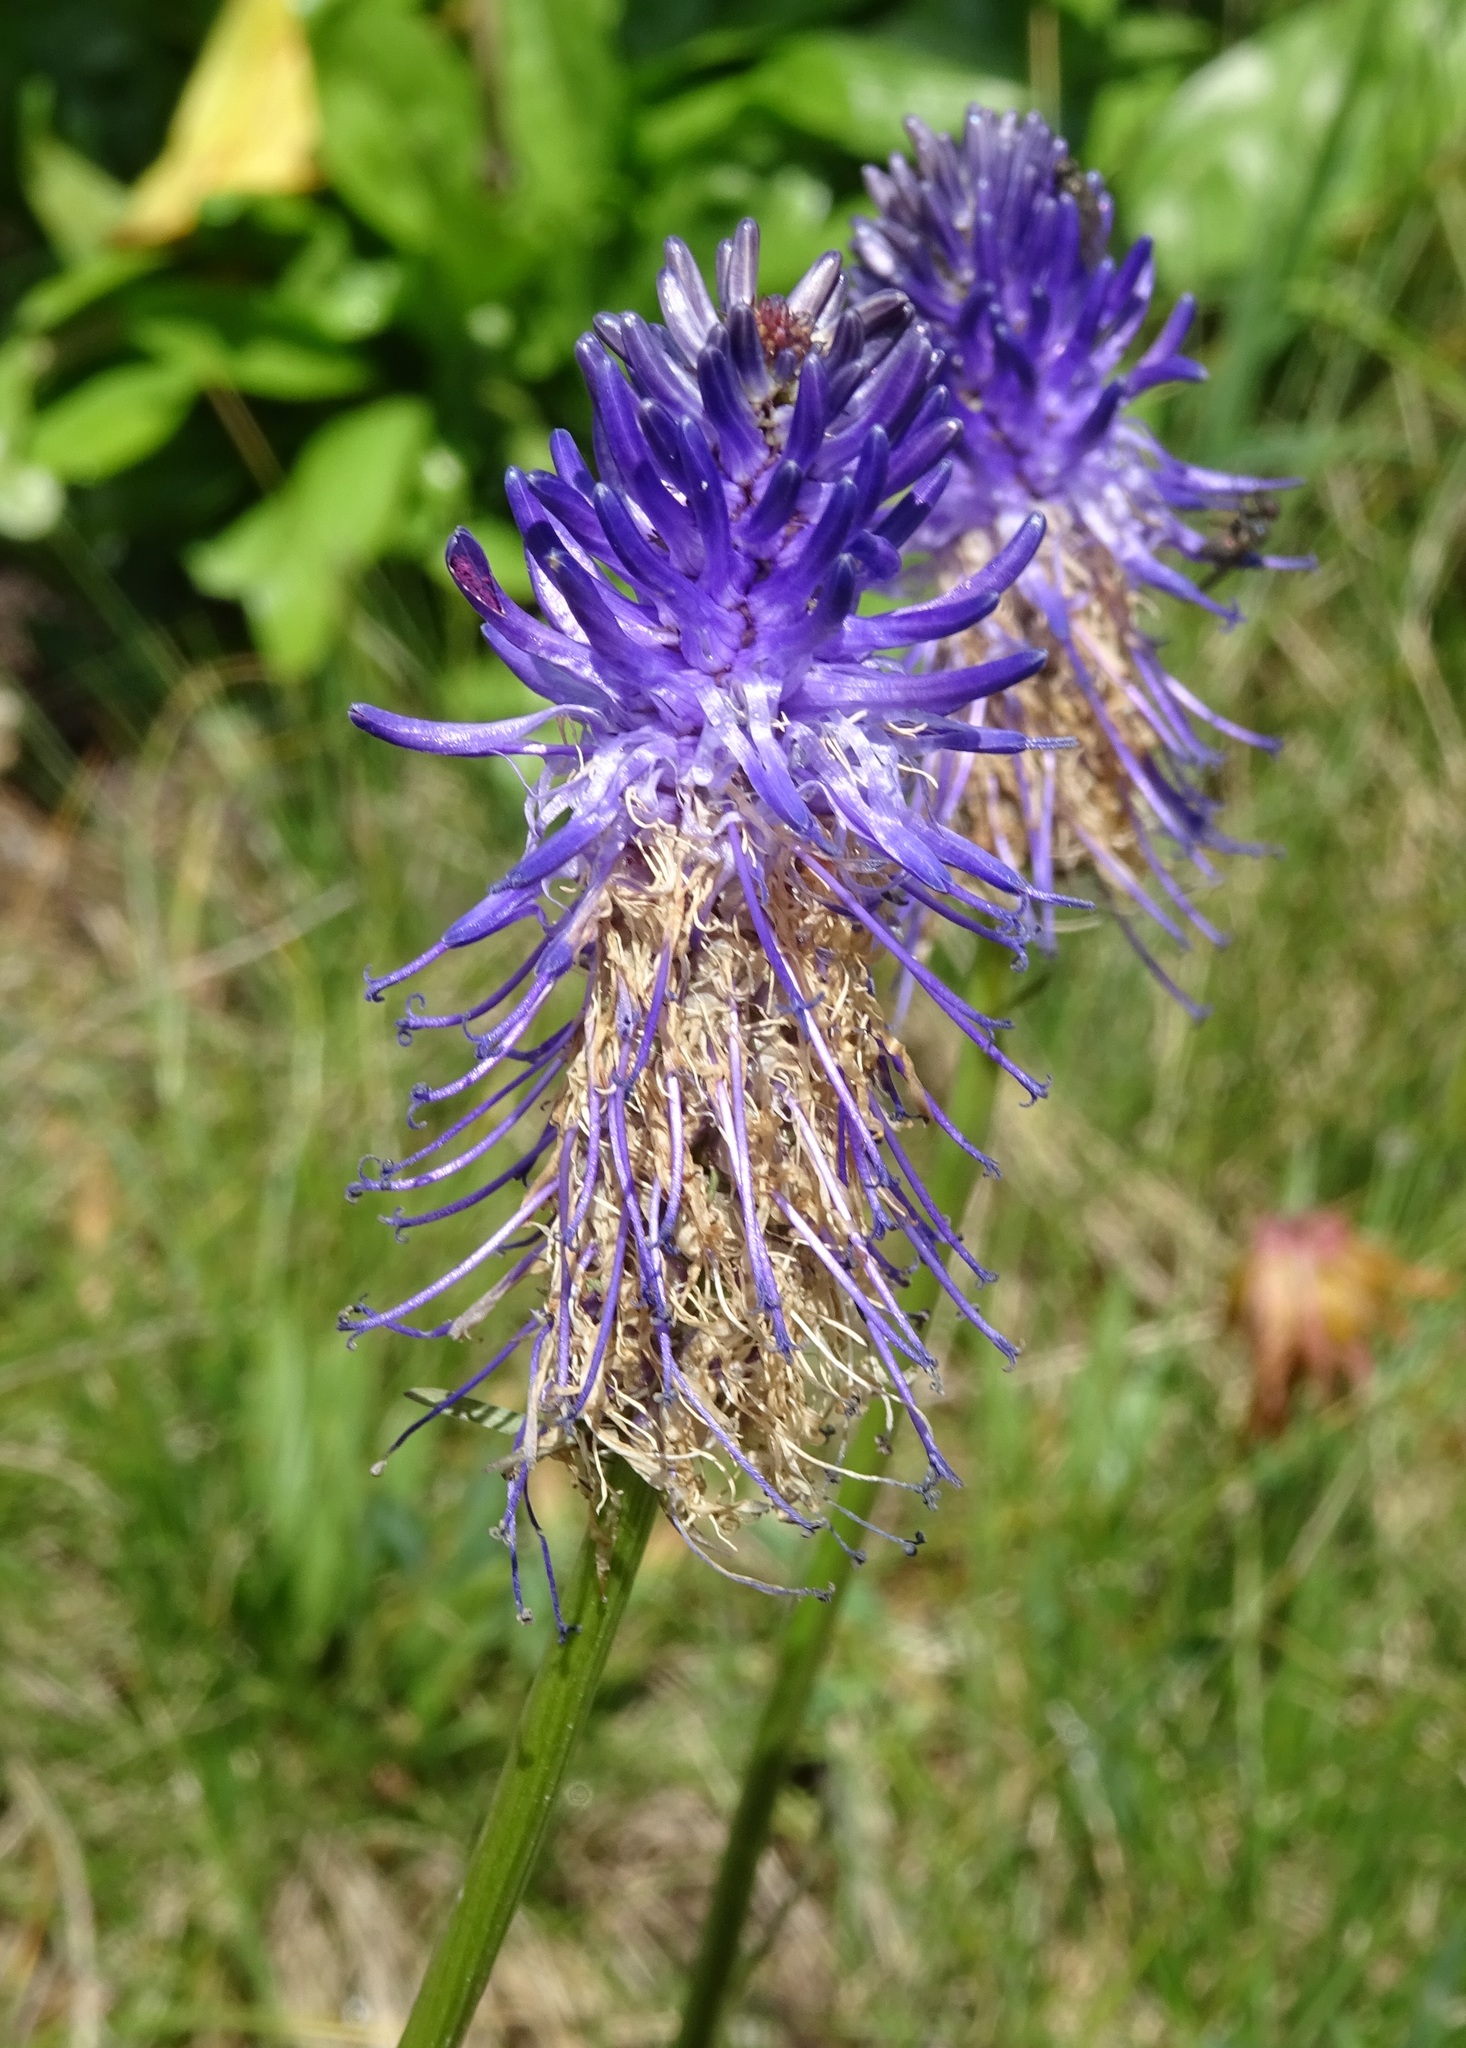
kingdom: Plantae
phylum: Tracheophyta
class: Magnoliopsida
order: Asterales
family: Campanulaceae
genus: Phyteuma
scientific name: Phyteuma betonicifolium
